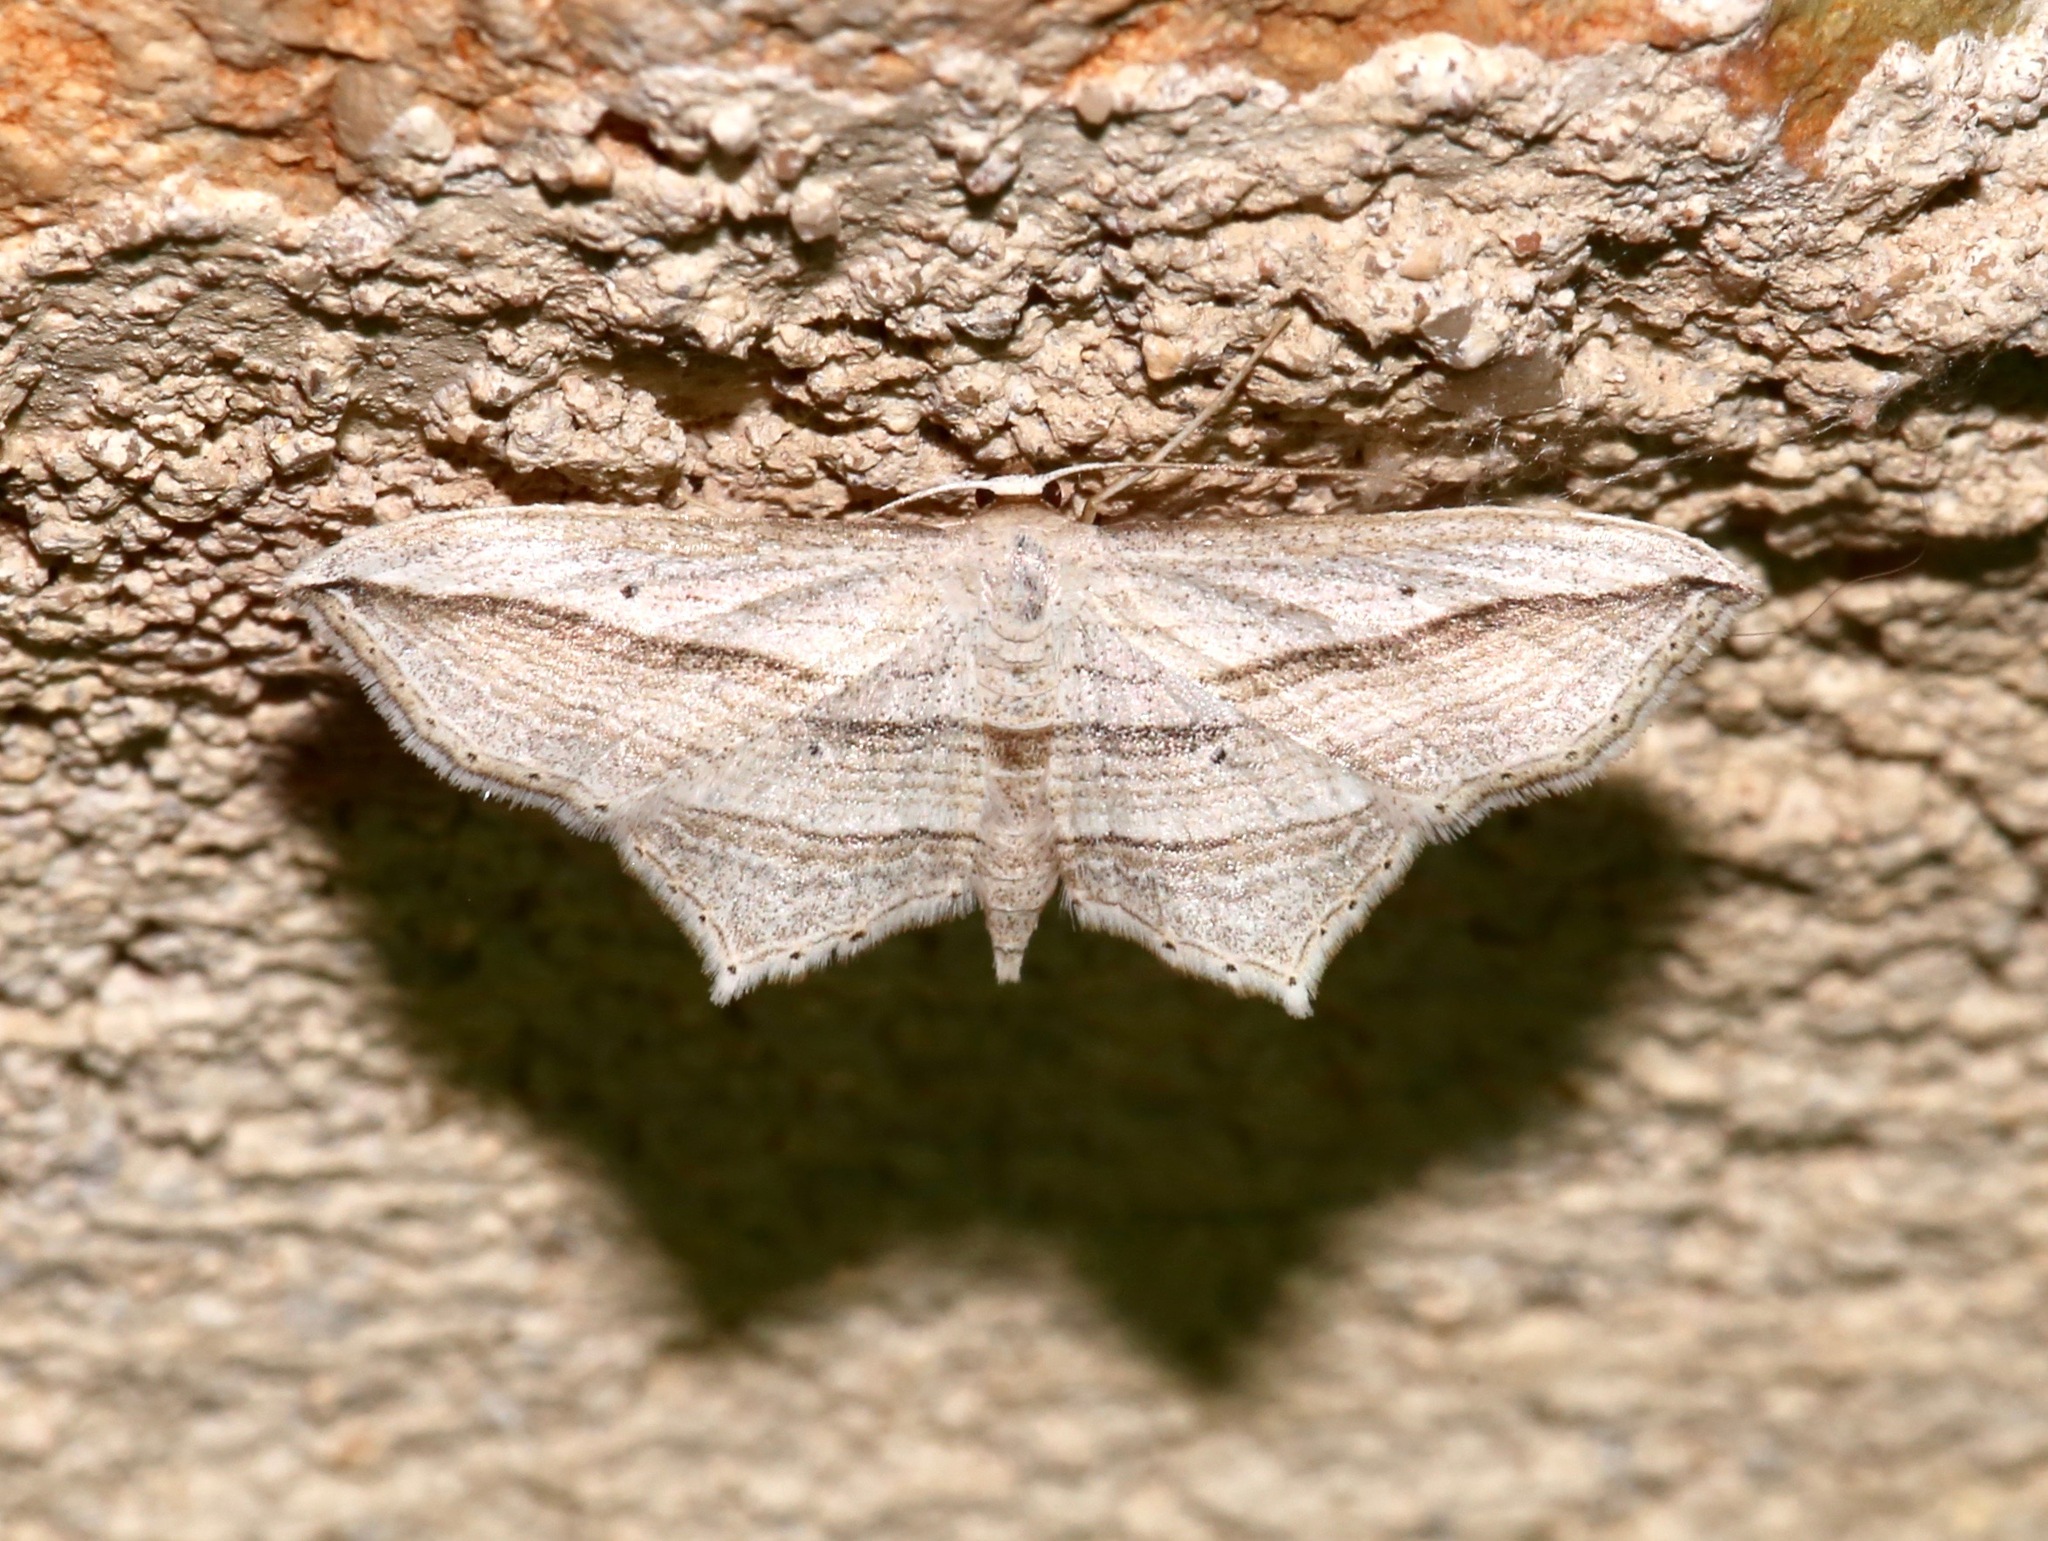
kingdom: Animalia
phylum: Arthropoda
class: Insecta
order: Lepidoptera
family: Geometridae
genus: Arcobara
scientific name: Arcobara multilineata
